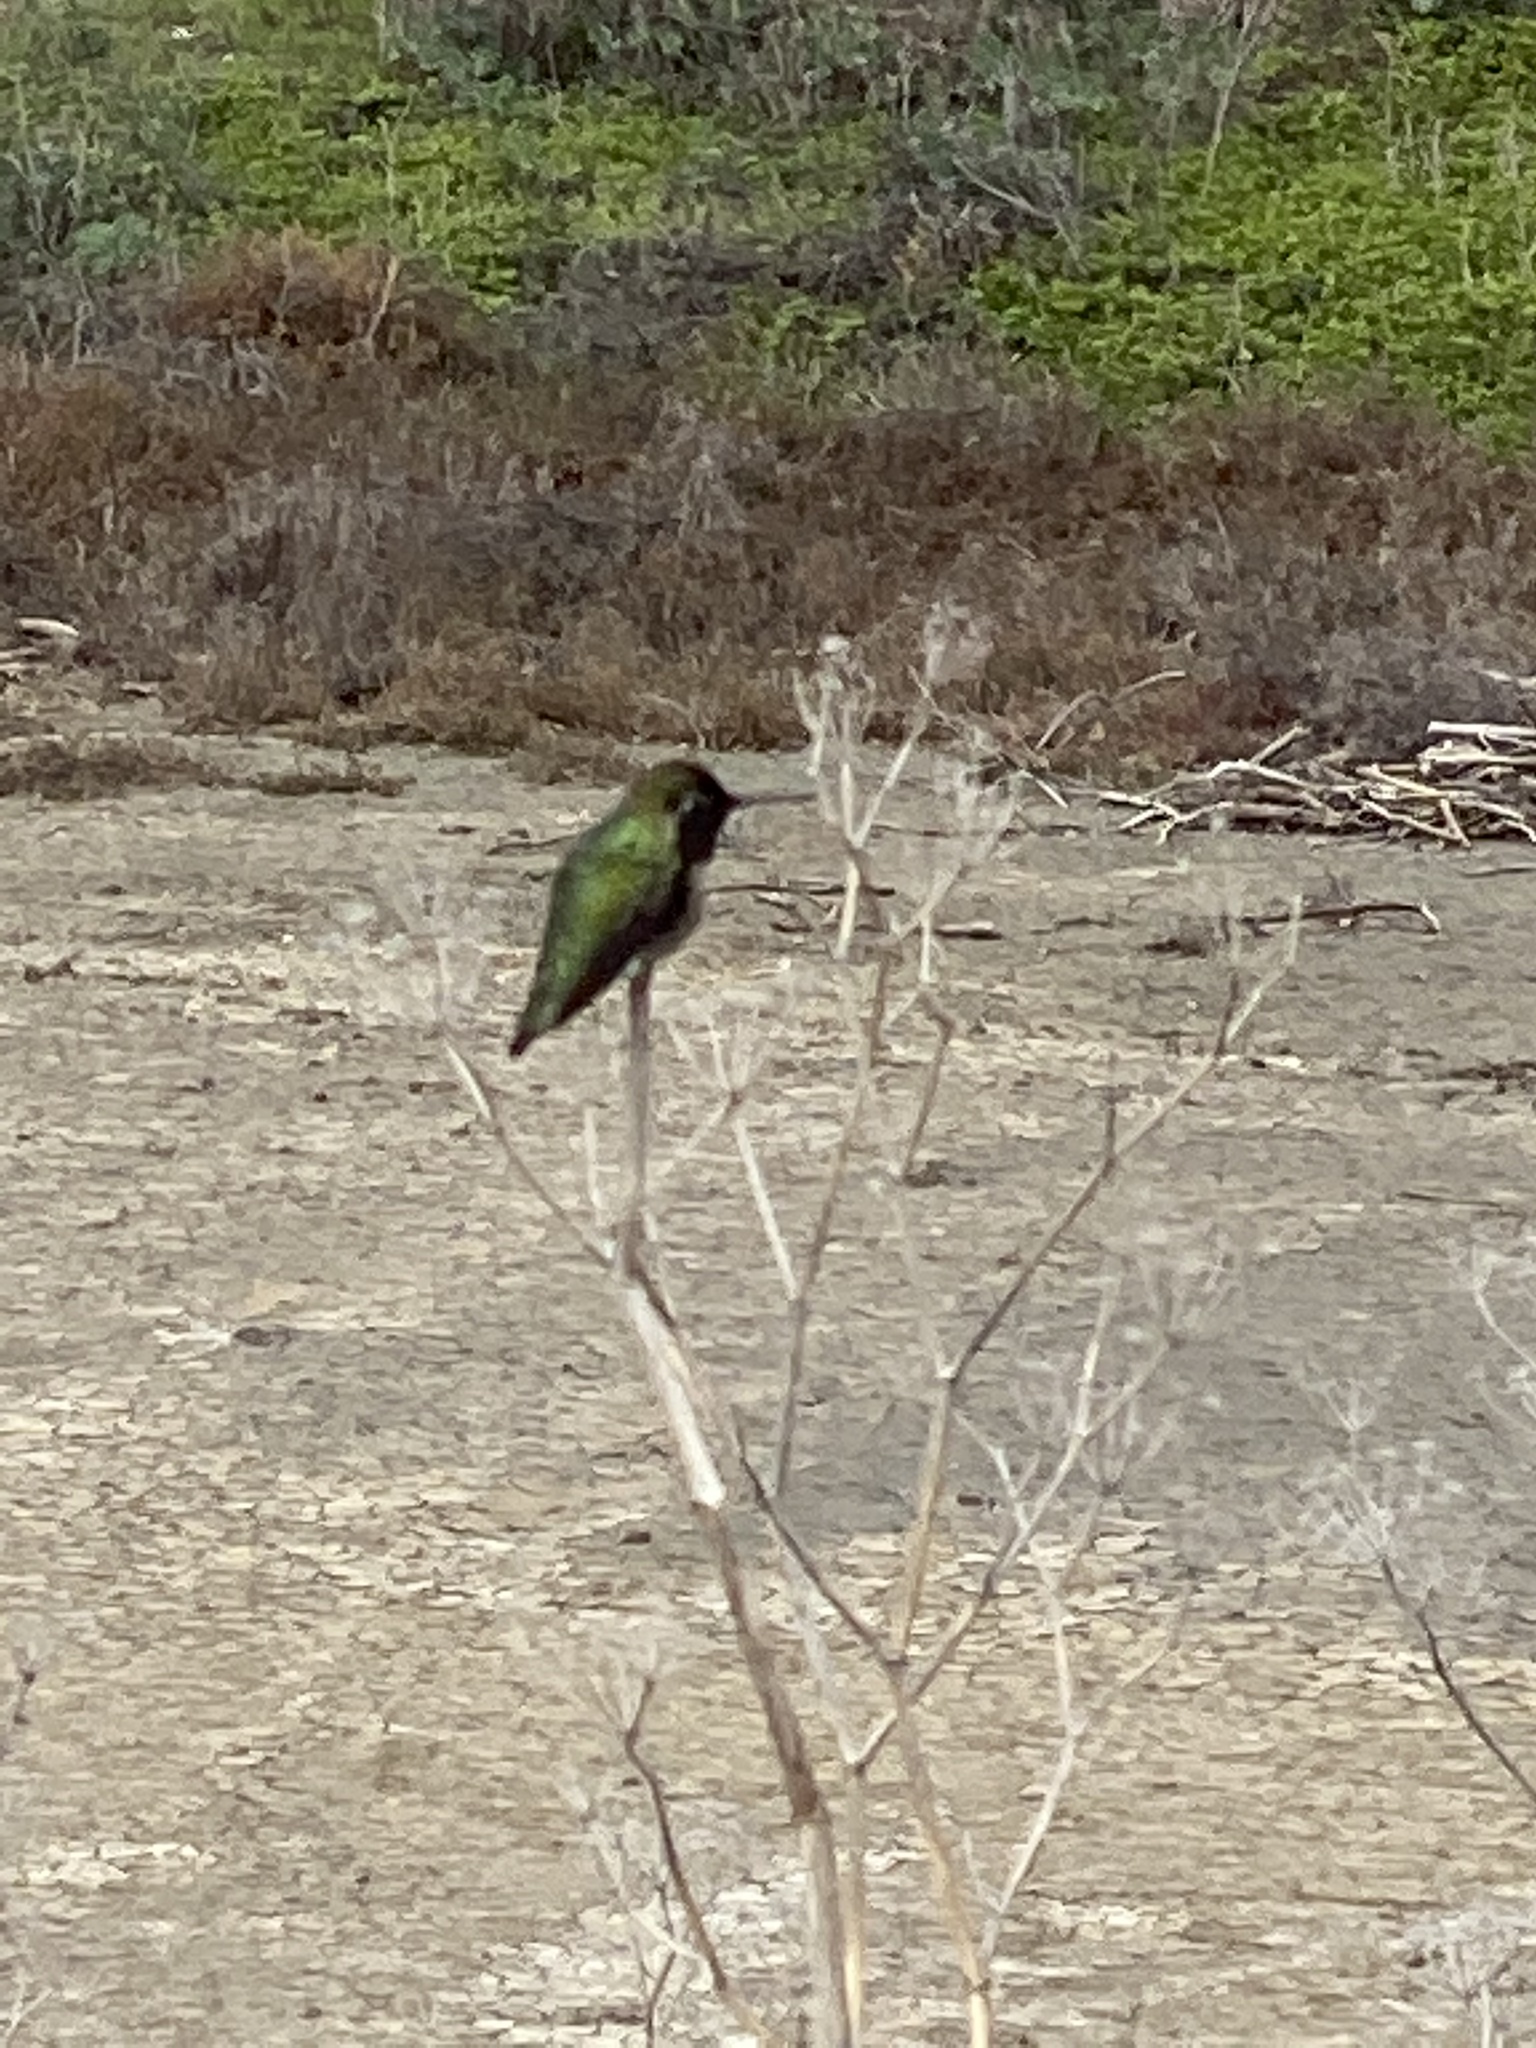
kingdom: Animalia
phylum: Chordata
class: Aves
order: Apodiformes
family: Trochilidae
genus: Calypte
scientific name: Calypte anna
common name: Anna's hummingbird
